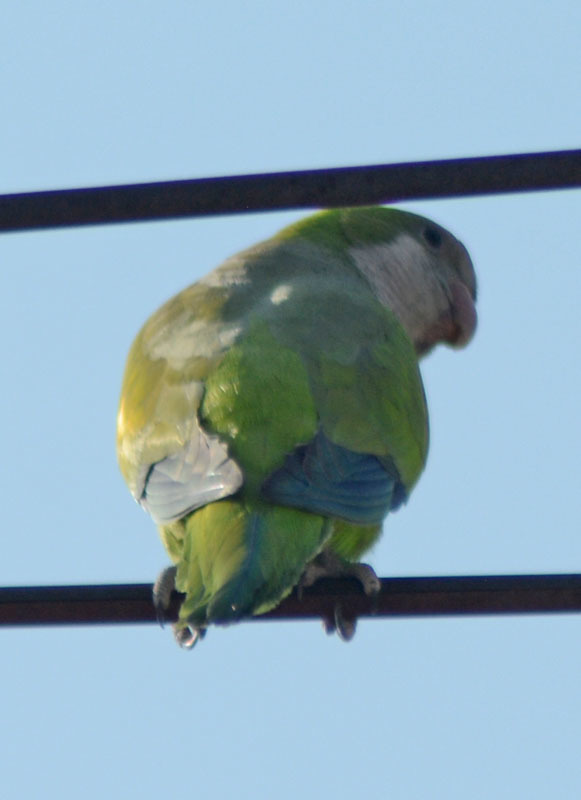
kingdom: Animalia
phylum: Chordata
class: Aves
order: Psittaciformes
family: Psittacidae
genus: Myiopsitta
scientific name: Myiopsitta monachus
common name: Monk parakeet
